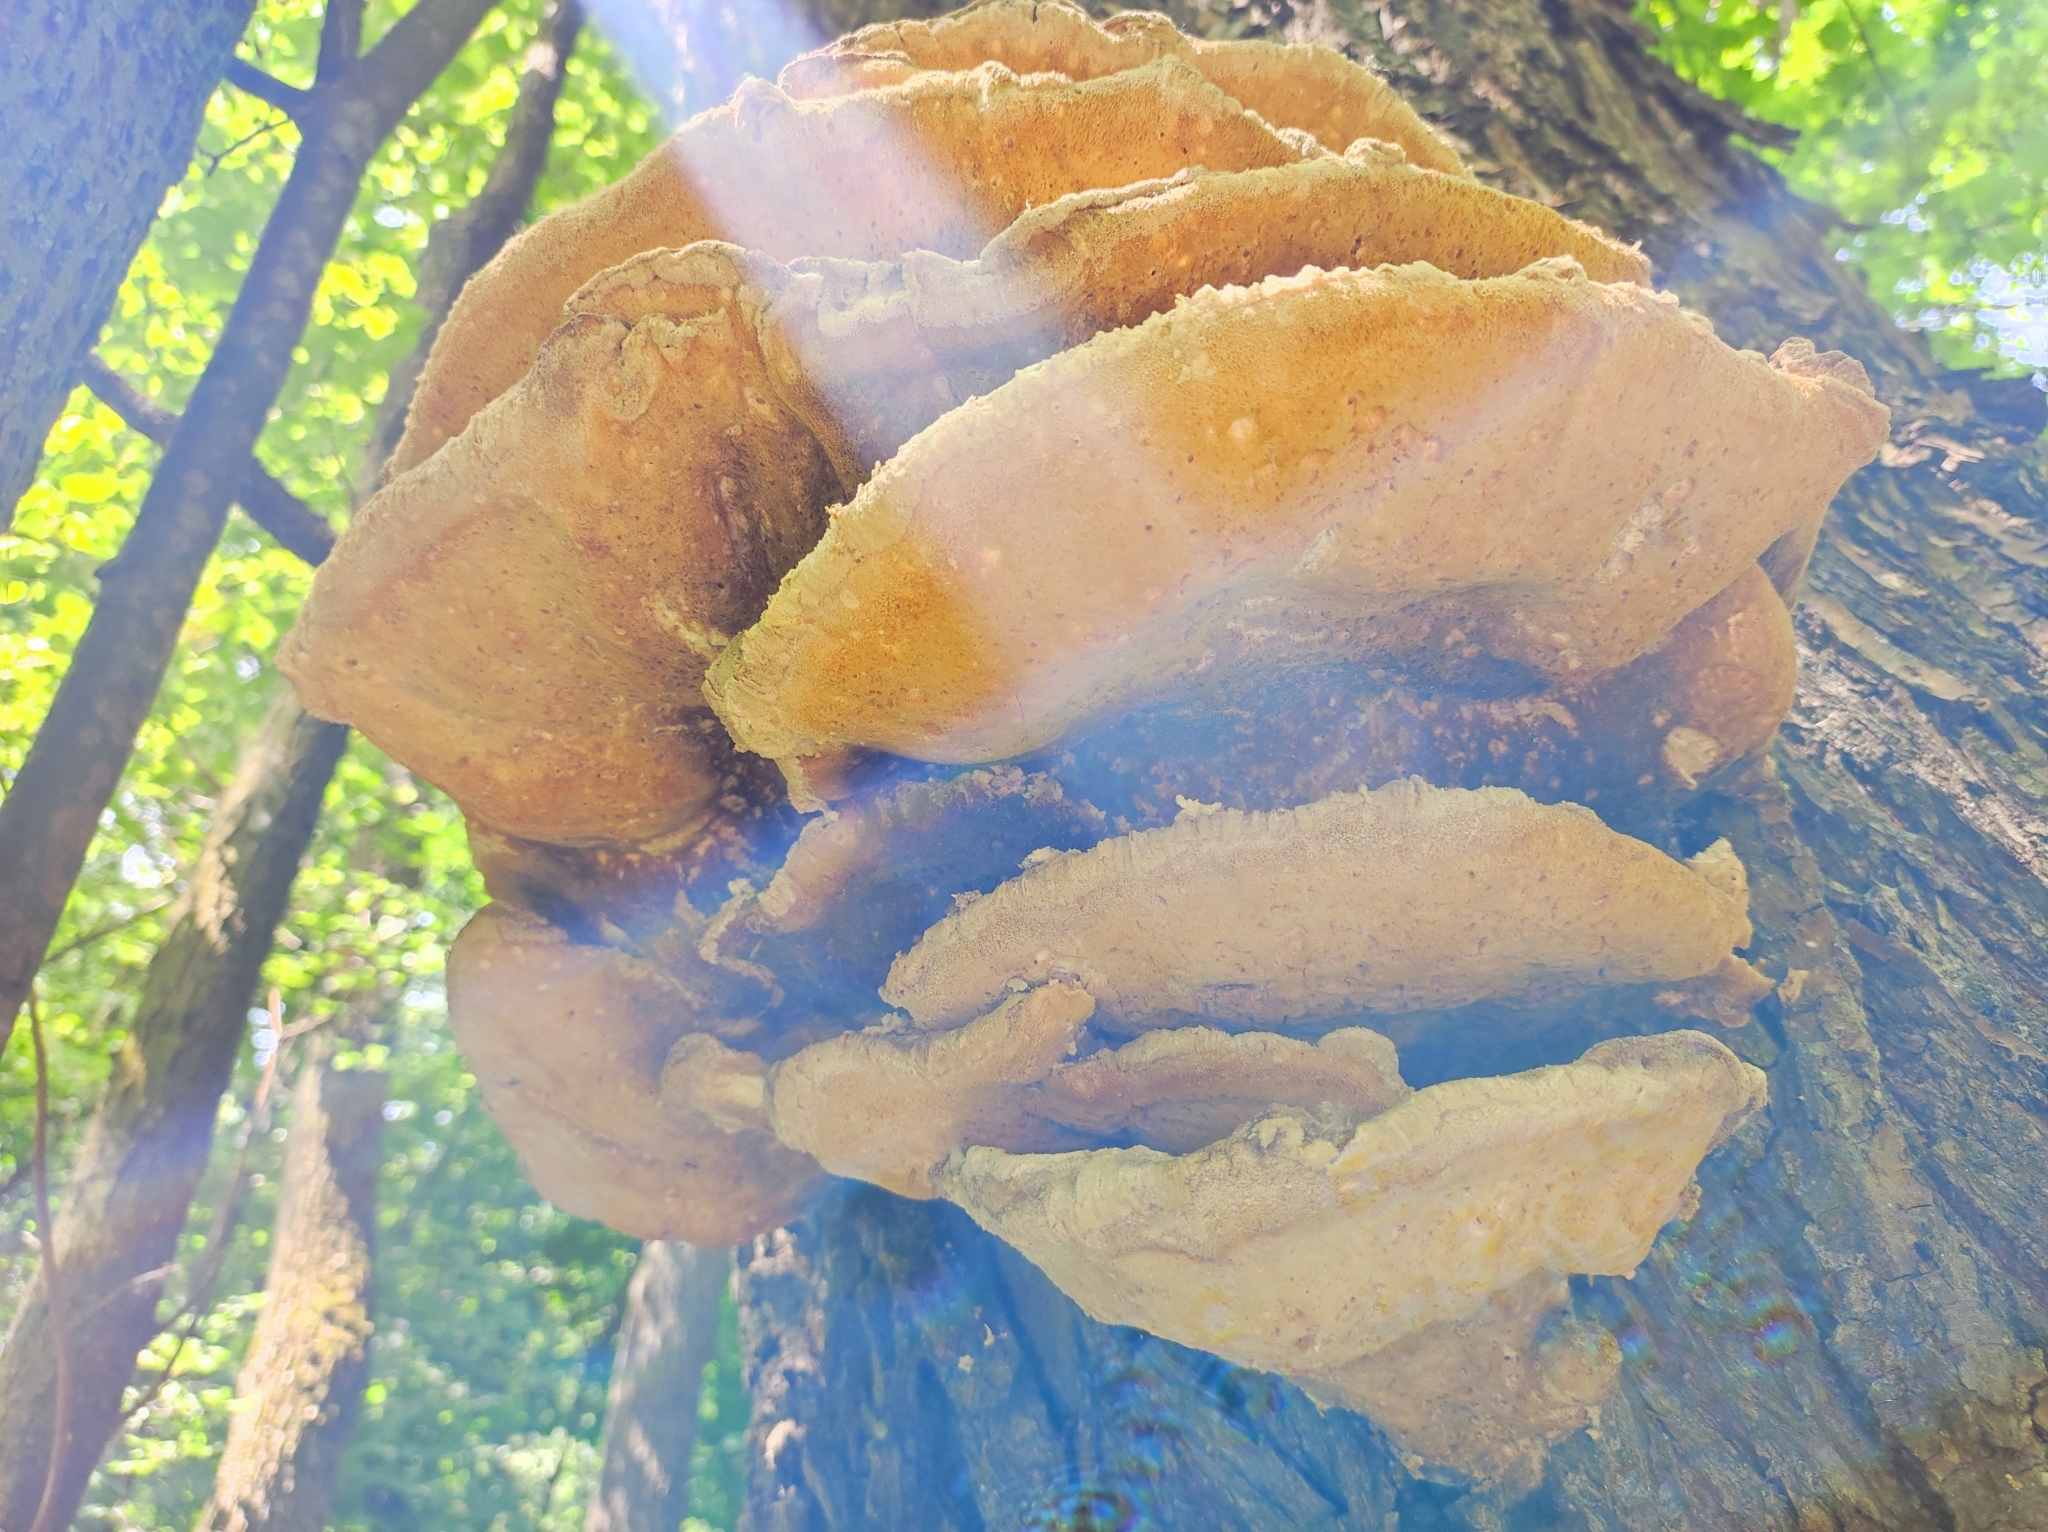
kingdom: Fungi
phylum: Basidiomycota
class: Agaricomycetes
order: Polyporales
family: Laetiporaceae
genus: Laetiporus
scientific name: Laetiporus sulphureus
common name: Chicken of the woods
